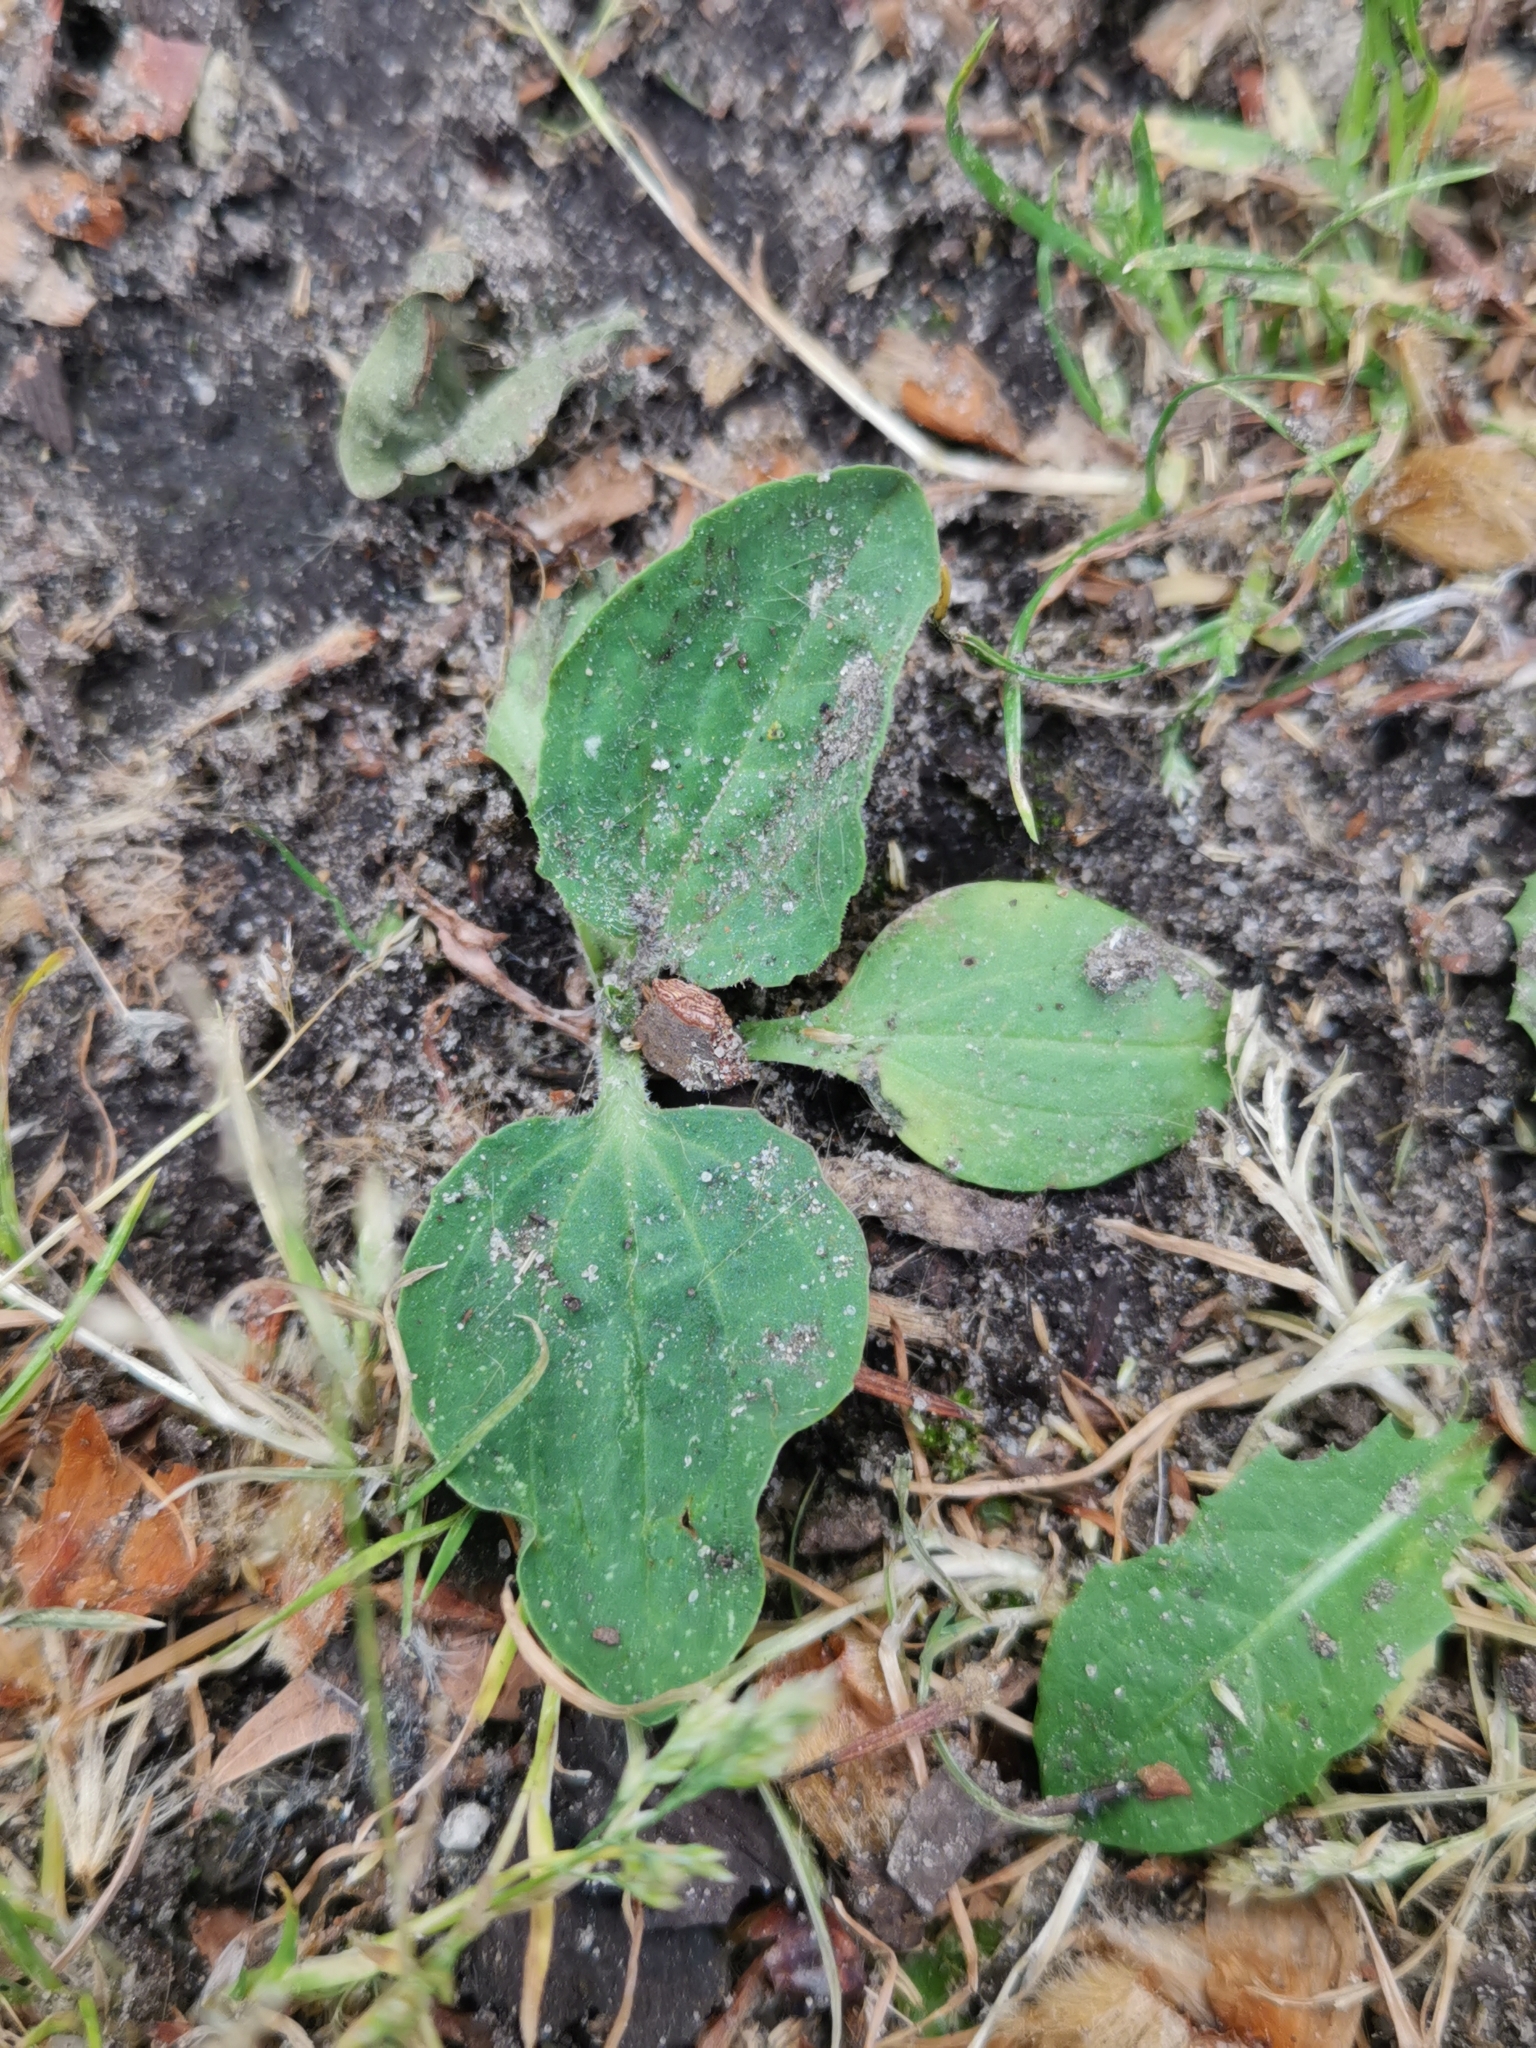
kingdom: Plantae
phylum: Tracheophyta
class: Magnoliopsida
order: Lamiales
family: Plantaginaceae
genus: Plantago
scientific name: Plantago major
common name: Common plantain
